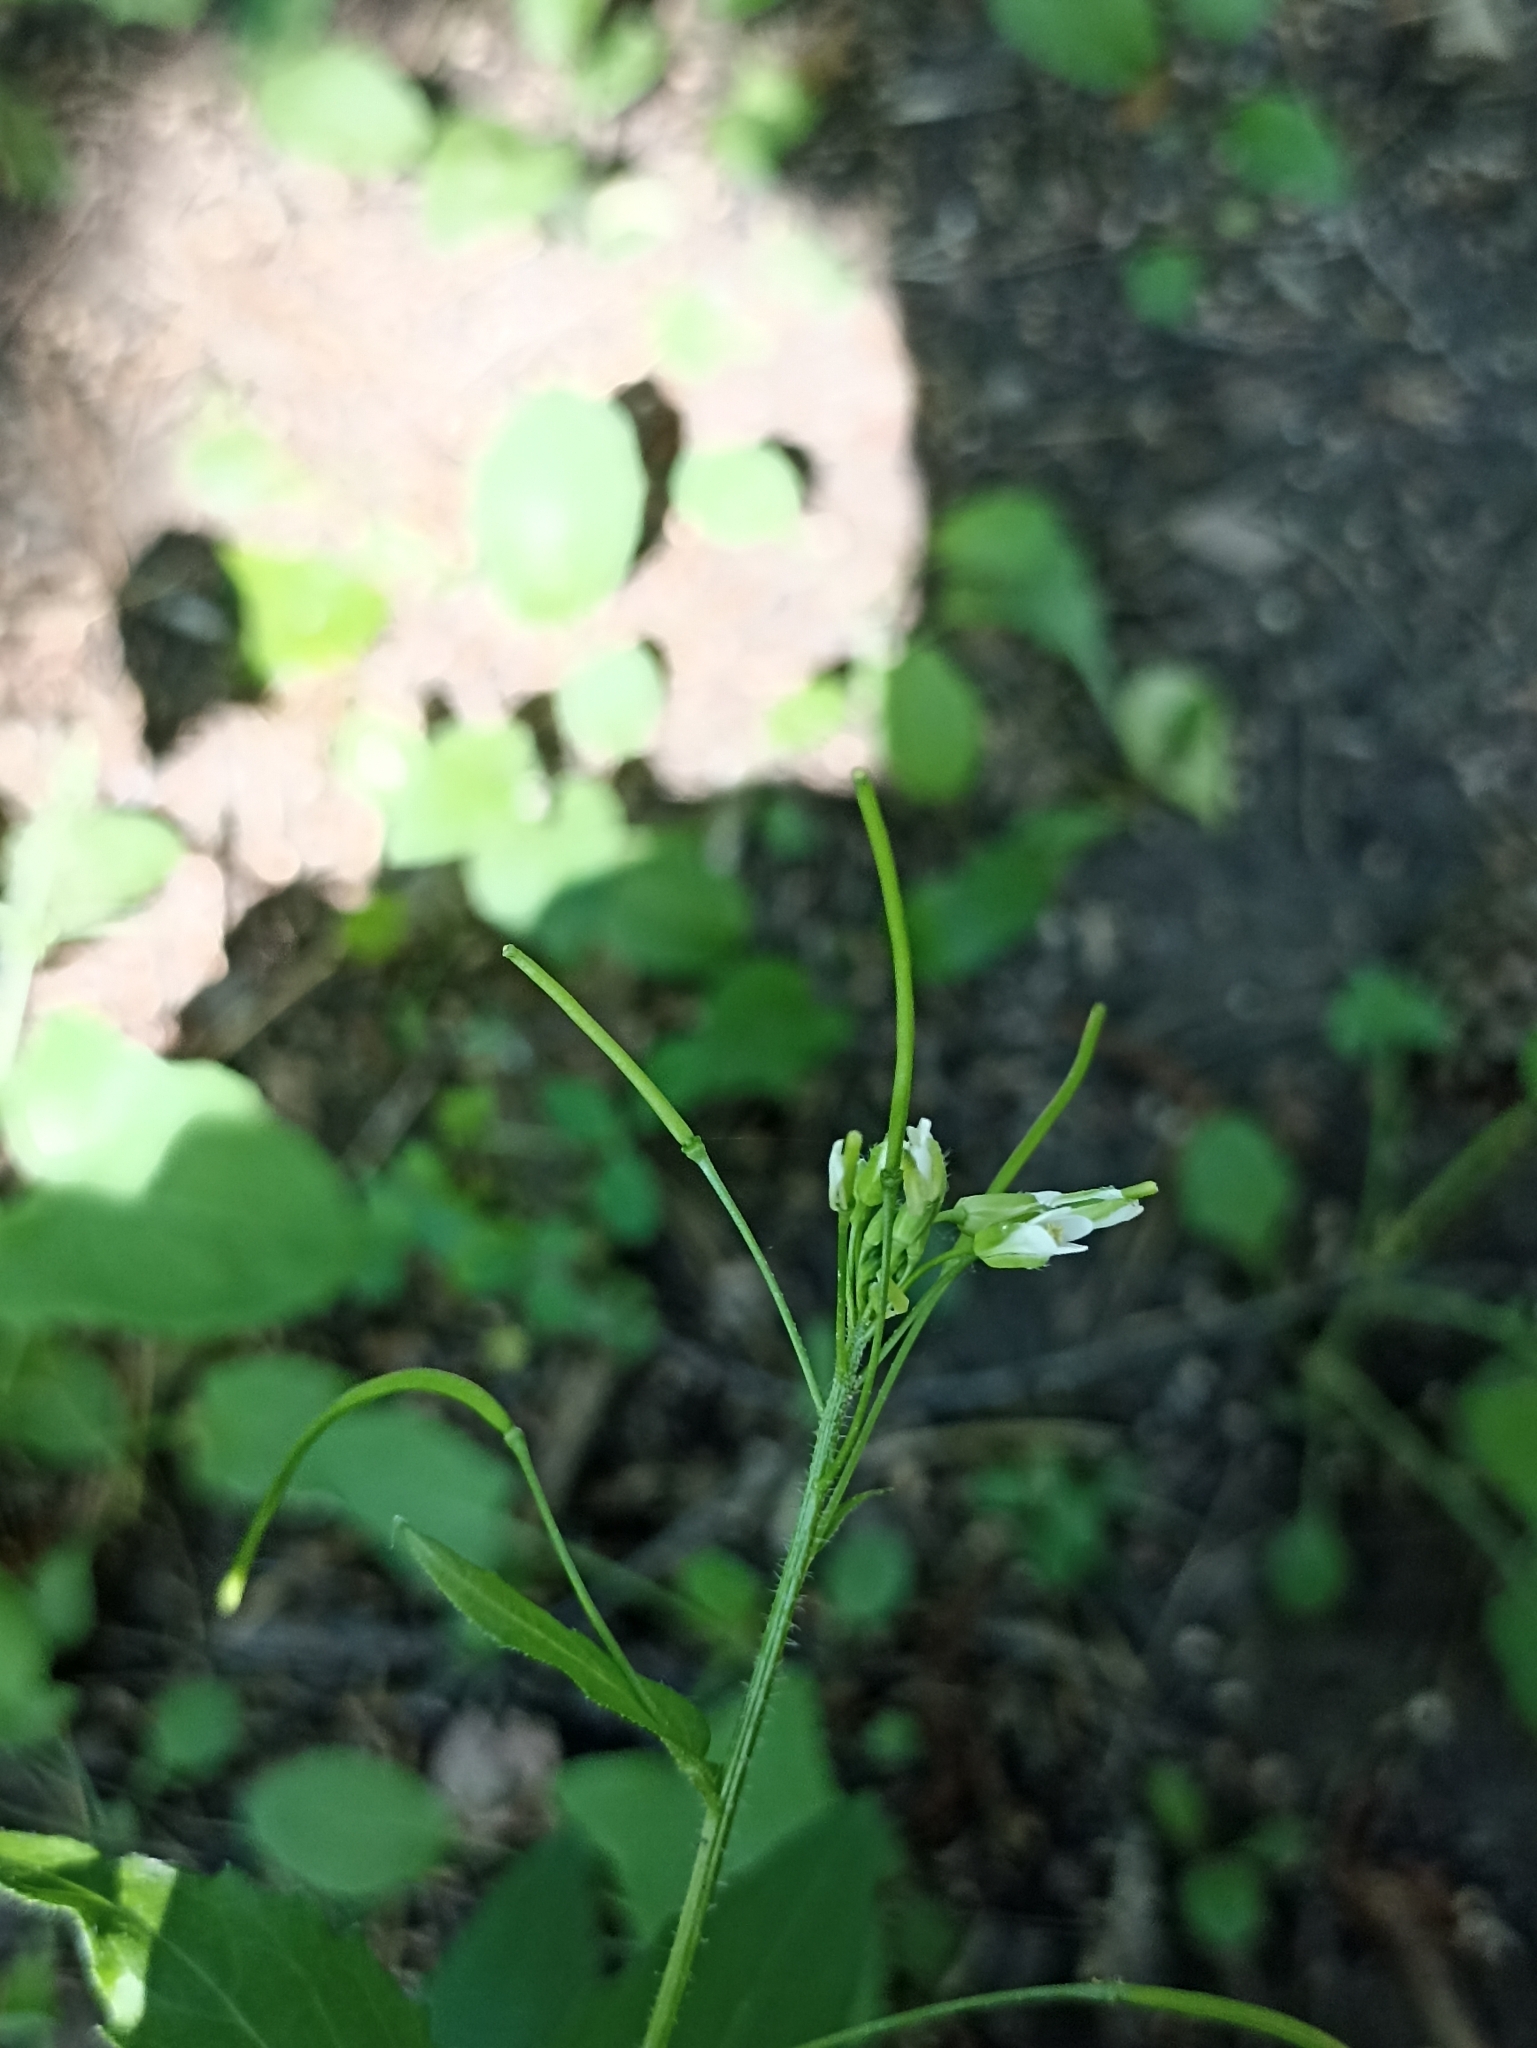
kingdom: Plantae
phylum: Tracheophyta
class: Magnoliopsida
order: Brassicales
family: Brassicaceae
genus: Catolobus
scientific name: Catolobus pendulus
